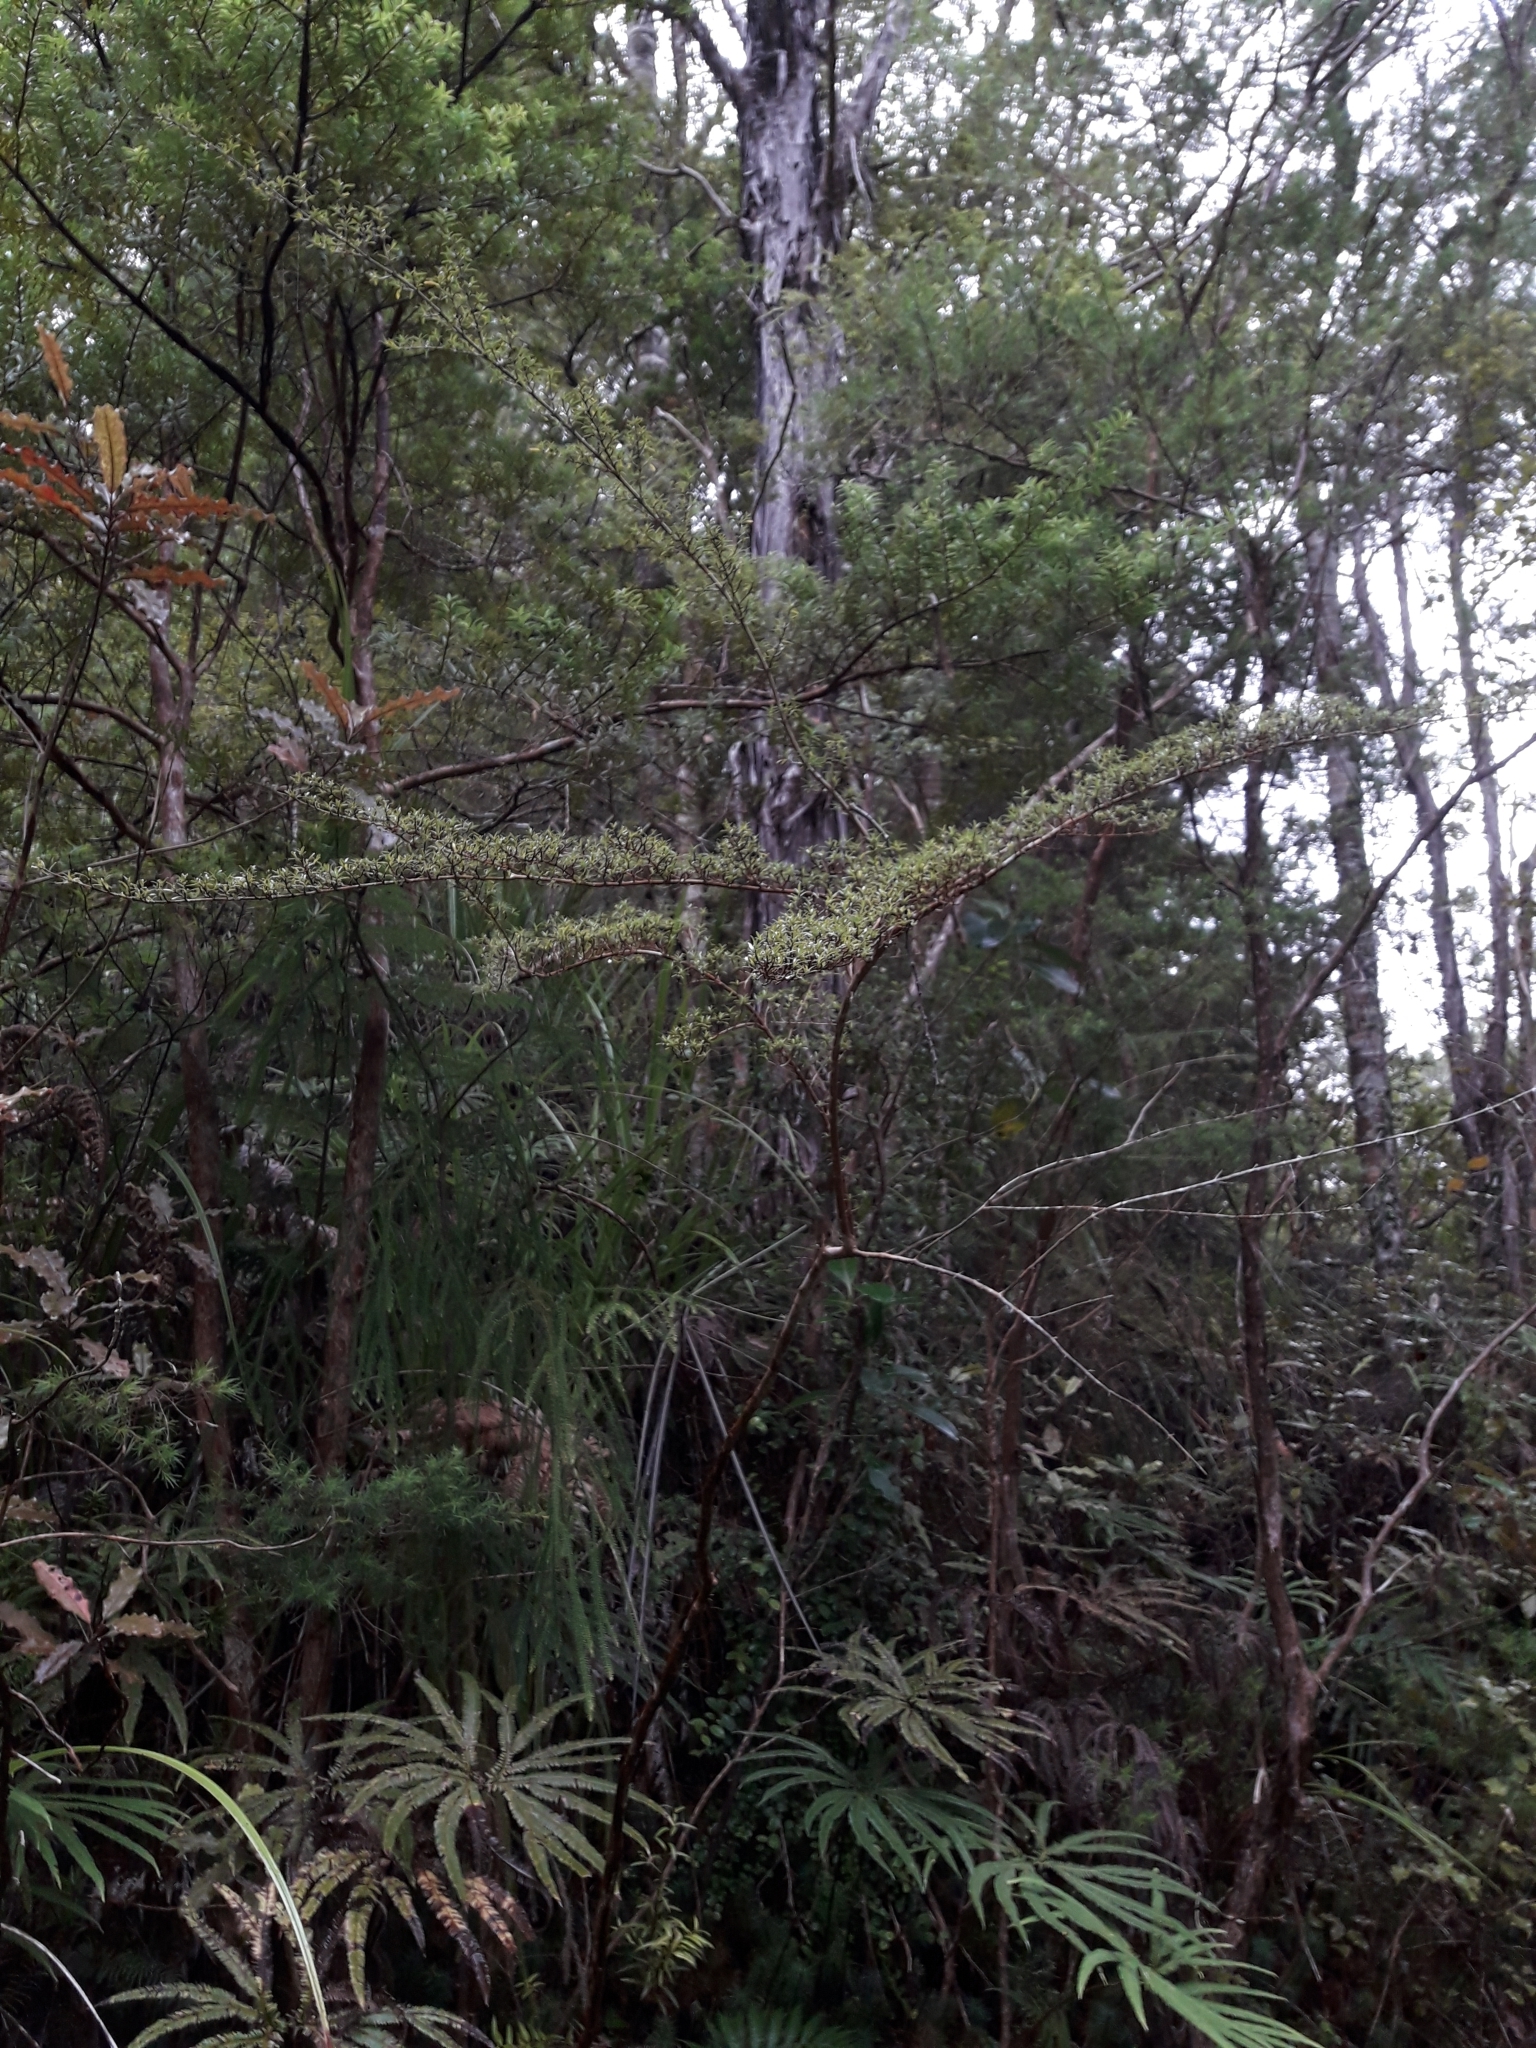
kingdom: Plantae
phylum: Tracheophyta
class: Magnoliopsida
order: Gentianales
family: Rubiaceae
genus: Coprosma
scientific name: Coprosma microcarpa
